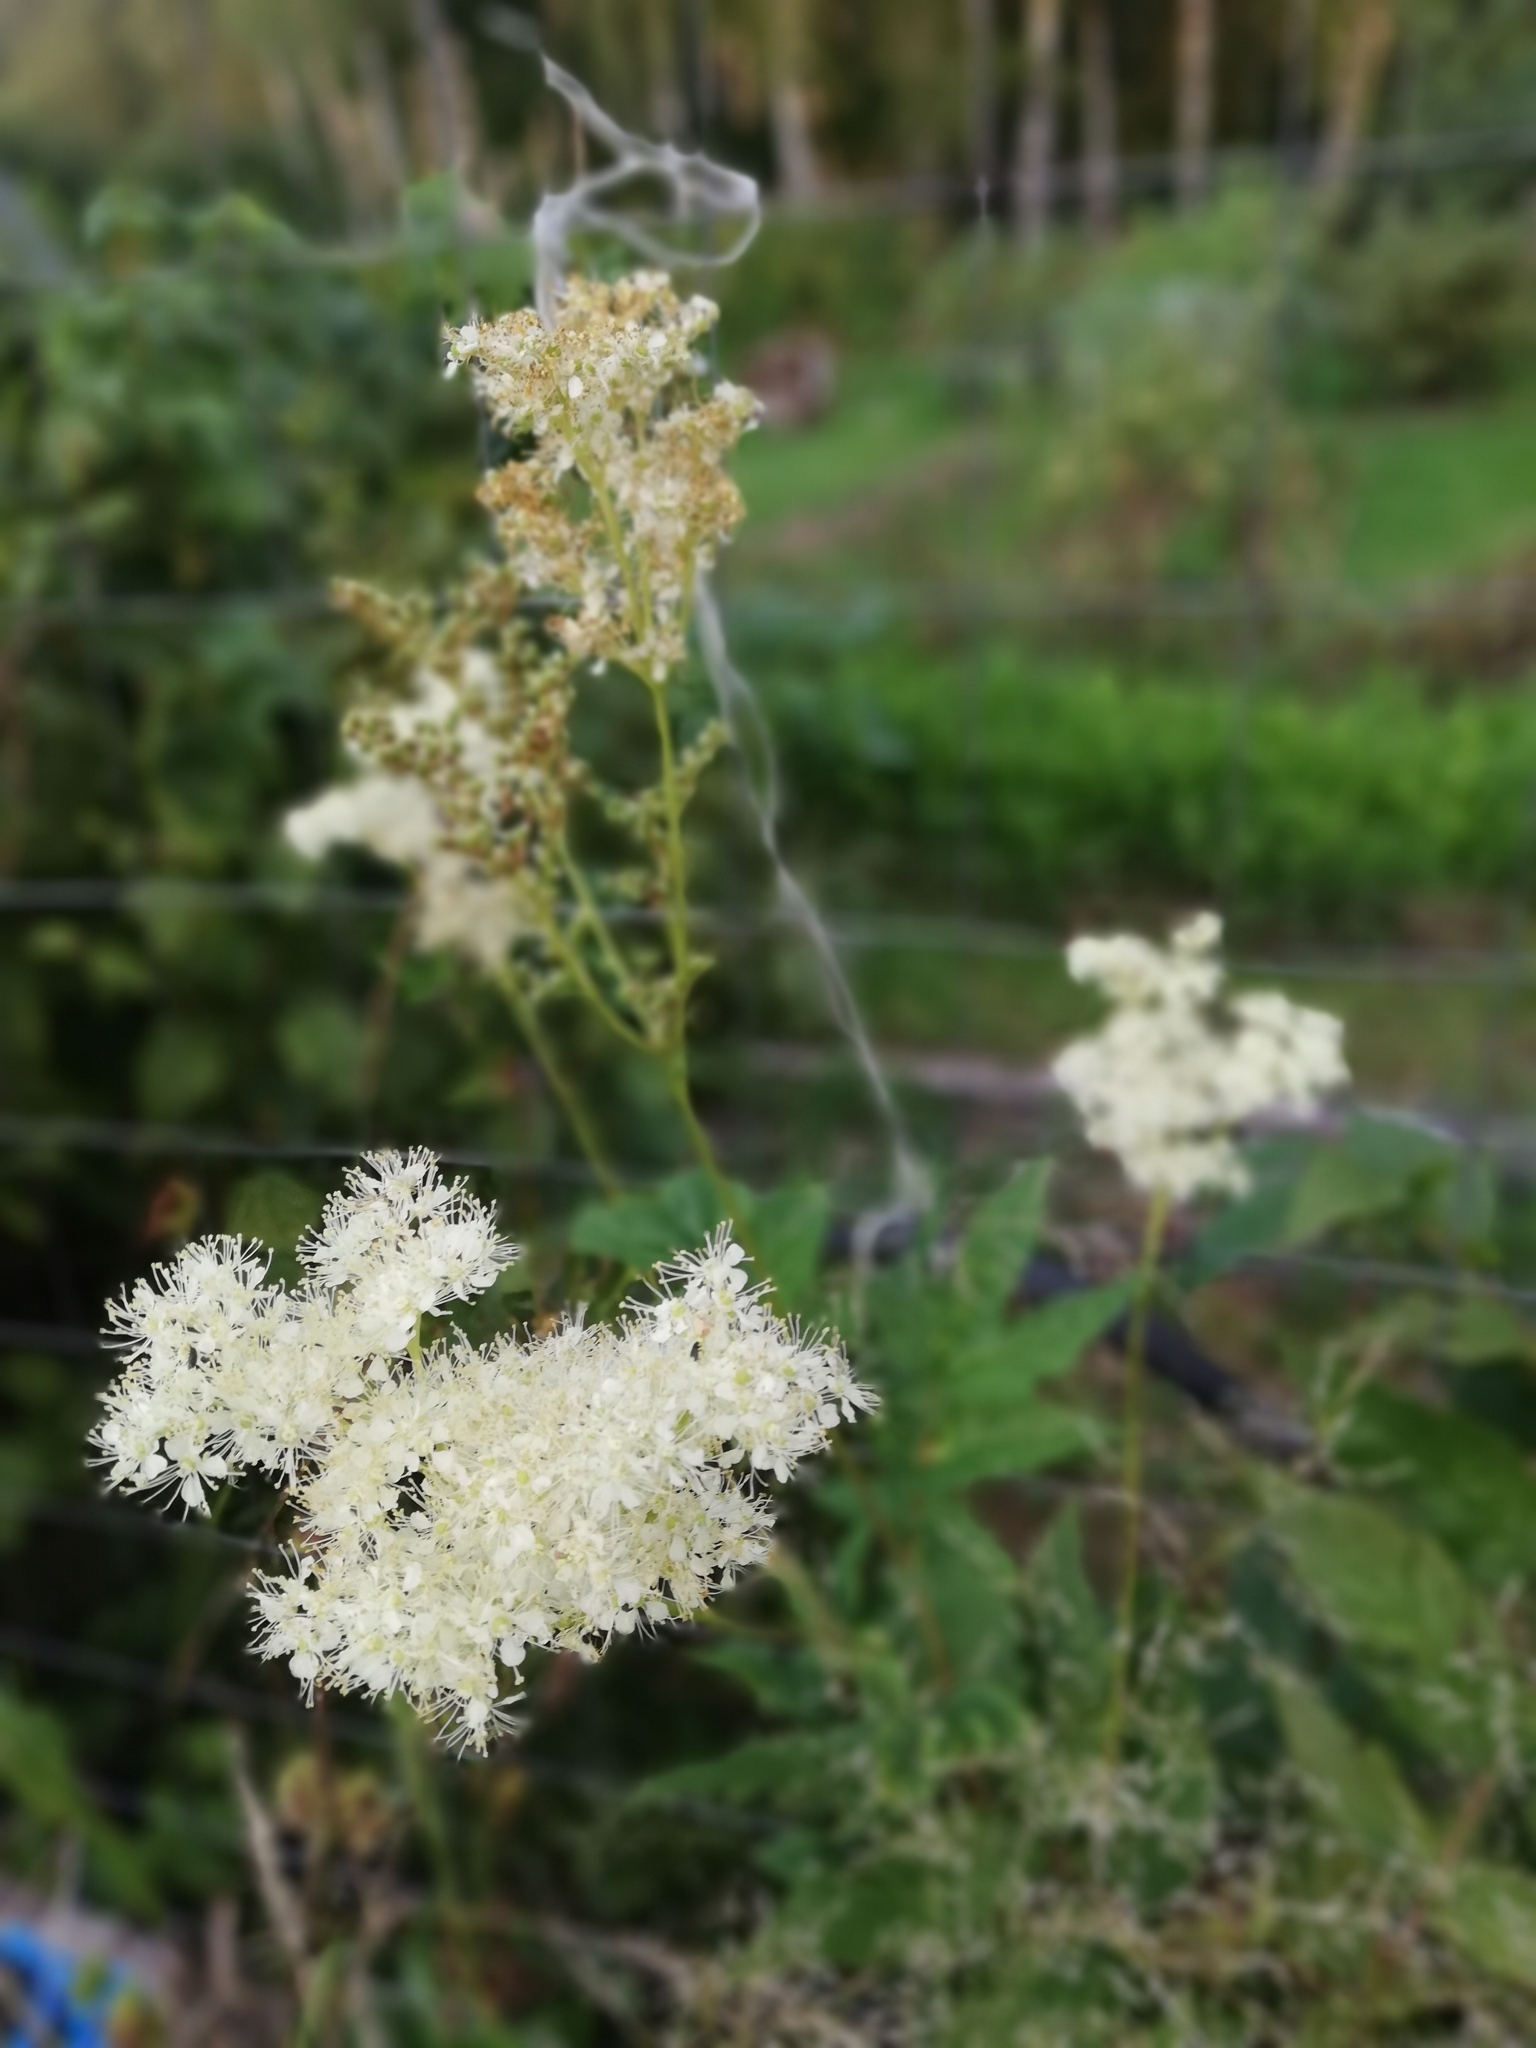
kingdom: Plantae
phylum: Tracheophyta
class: Magnoliopsida
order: Rosales
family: Rosaceae
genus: Filipendula
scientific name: Filipendula ulmaria
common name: Meadowsweet
